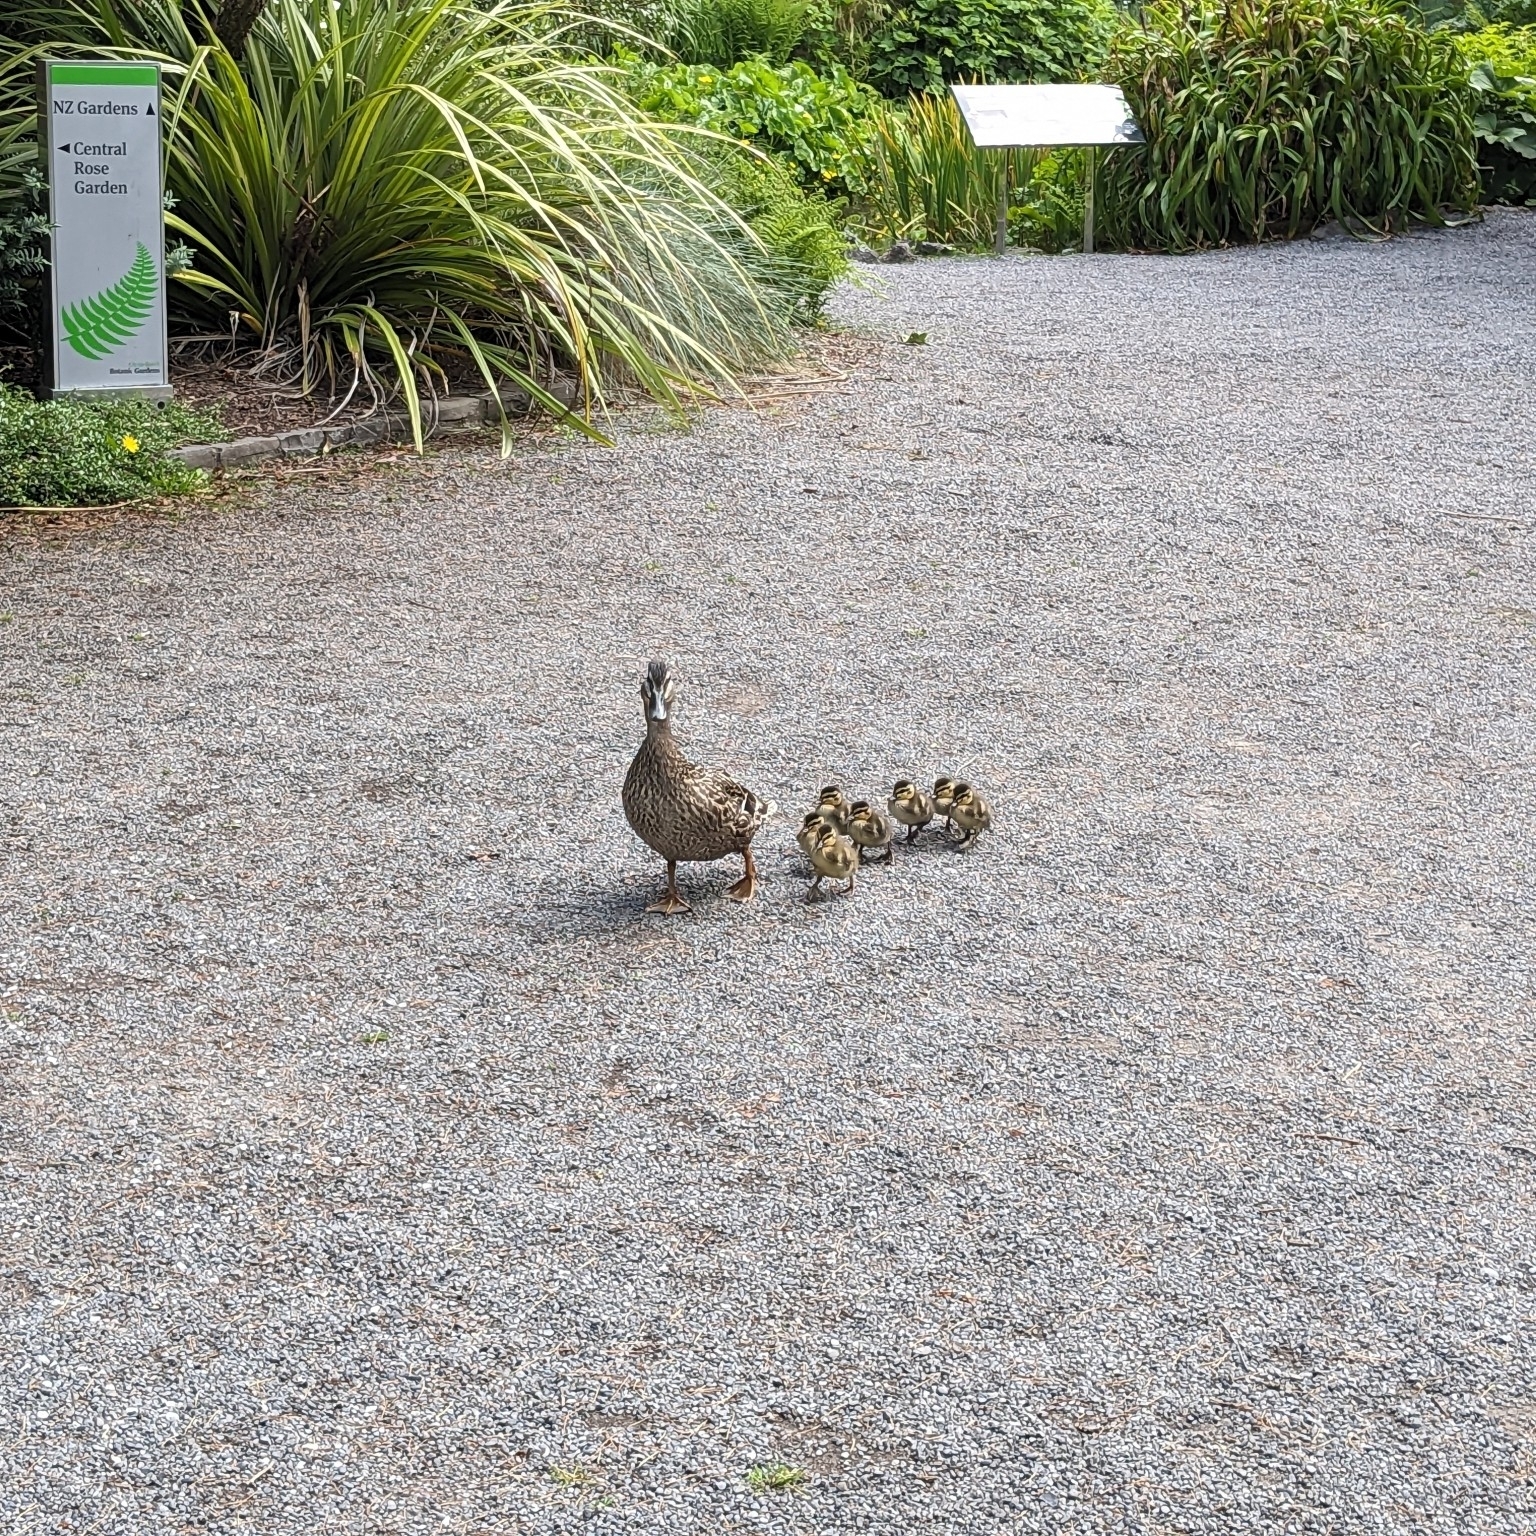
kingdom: Animalia
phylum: Chordata
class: Aves
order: Anseriformes
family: Anatidae
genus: Anas
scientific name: Anas
